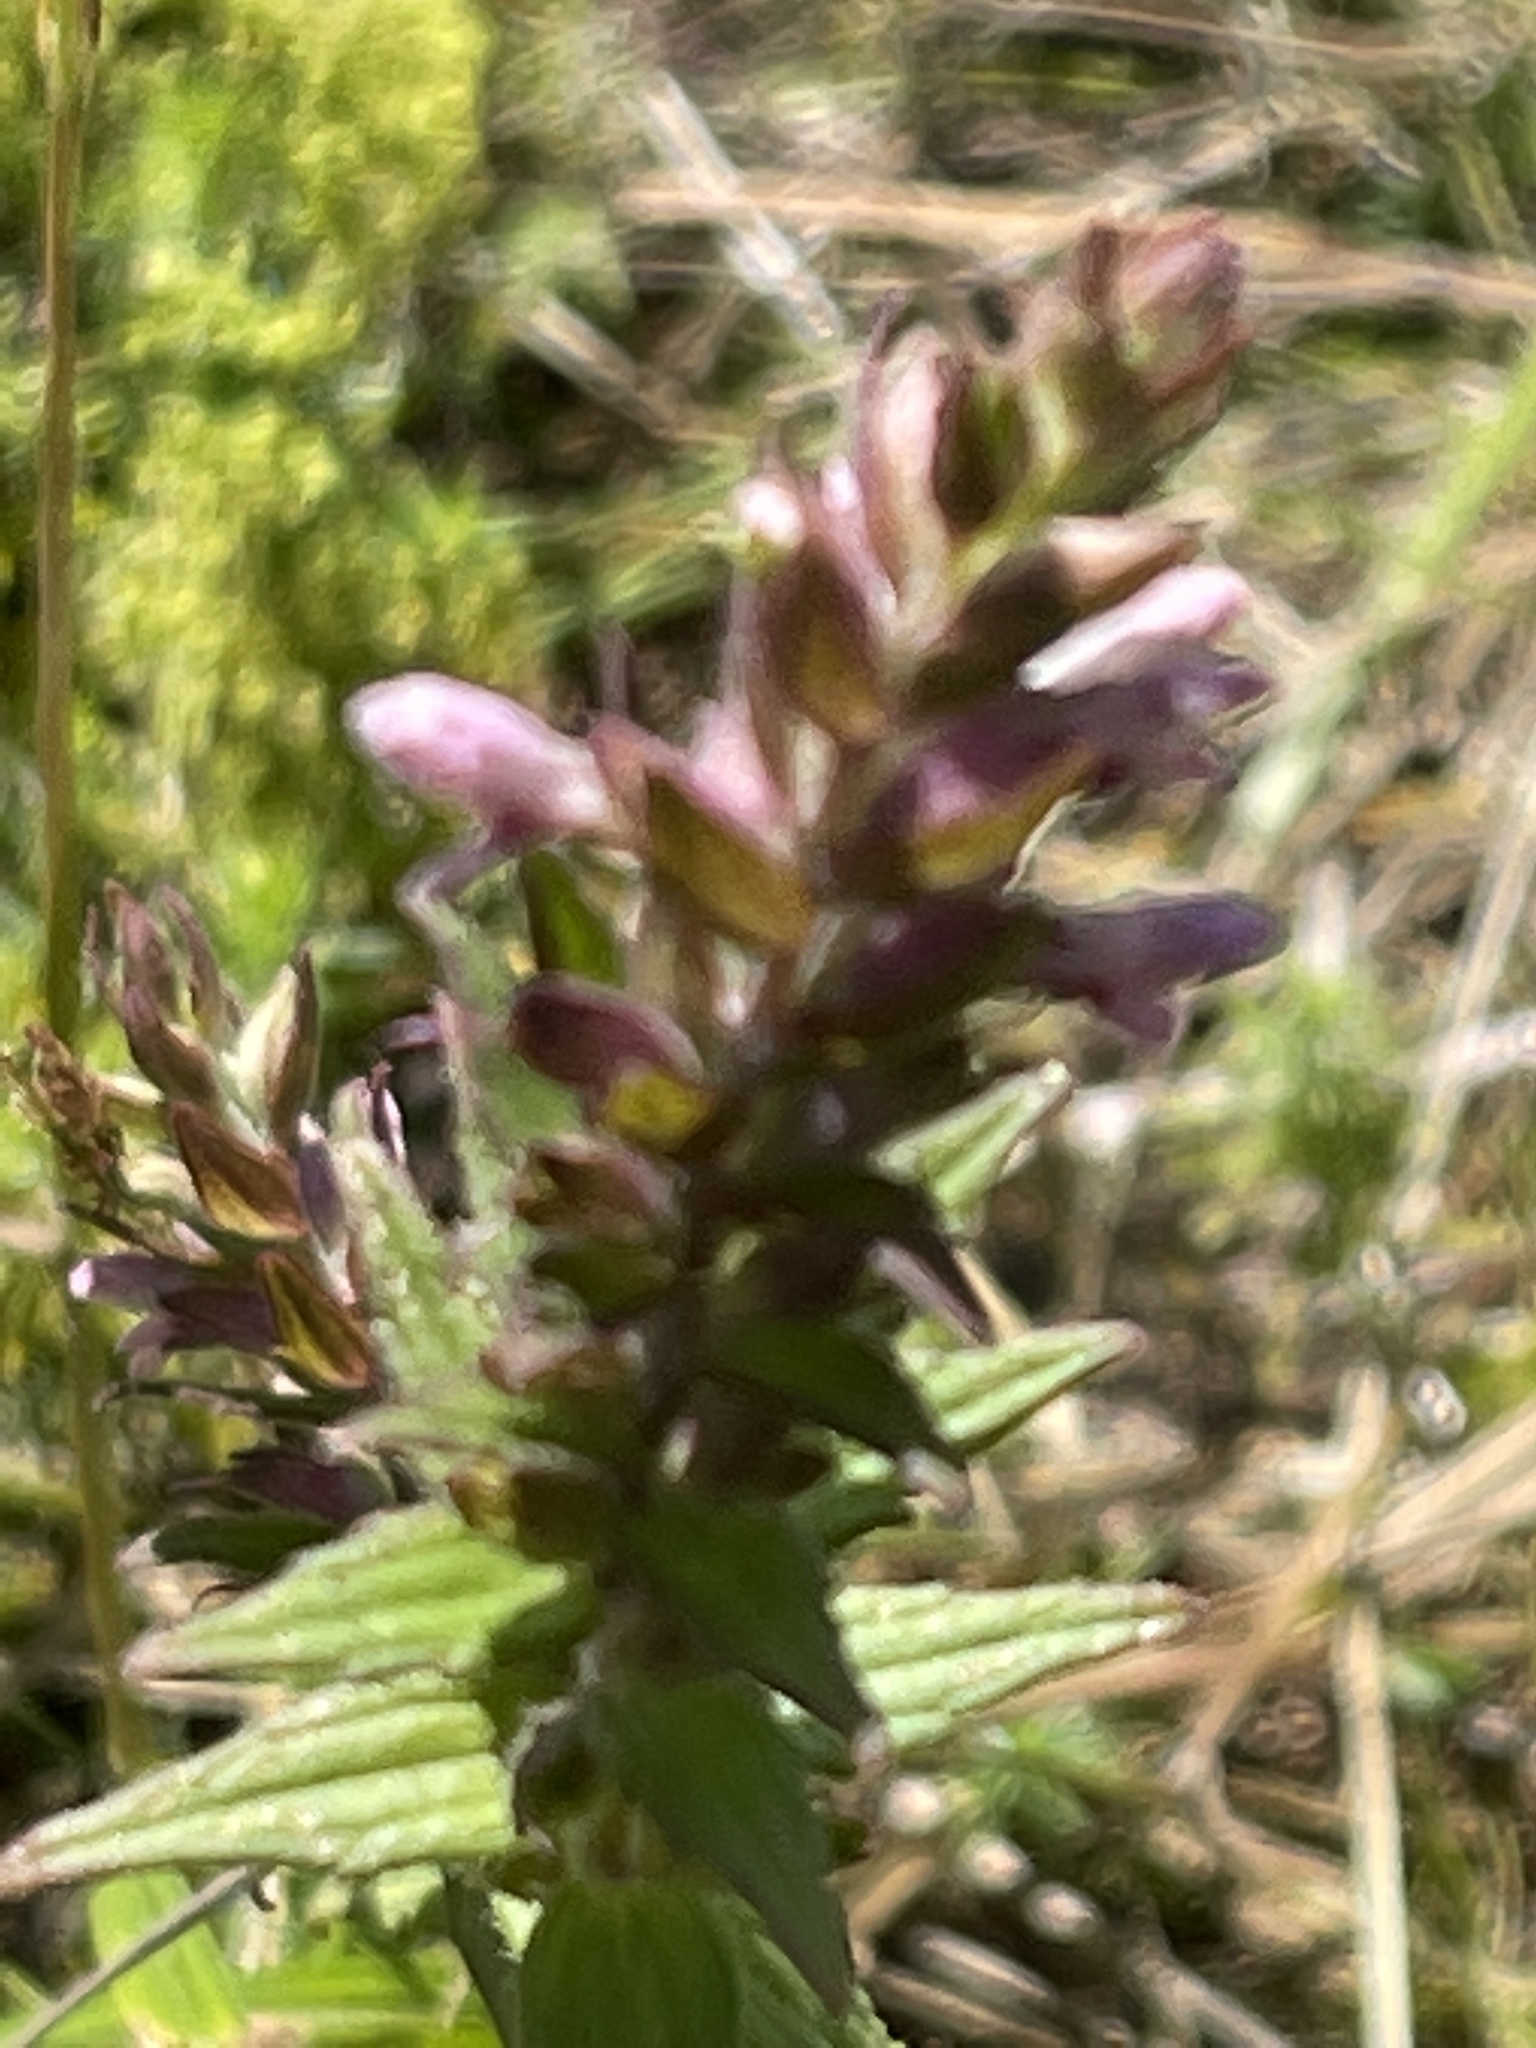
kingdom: Plantae
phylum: Tracheophyta
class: Magnoliopsida
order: Lamiales
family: Orobanchaceae
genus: Odontites
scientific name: Odontites vernus
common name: Red bartsia
